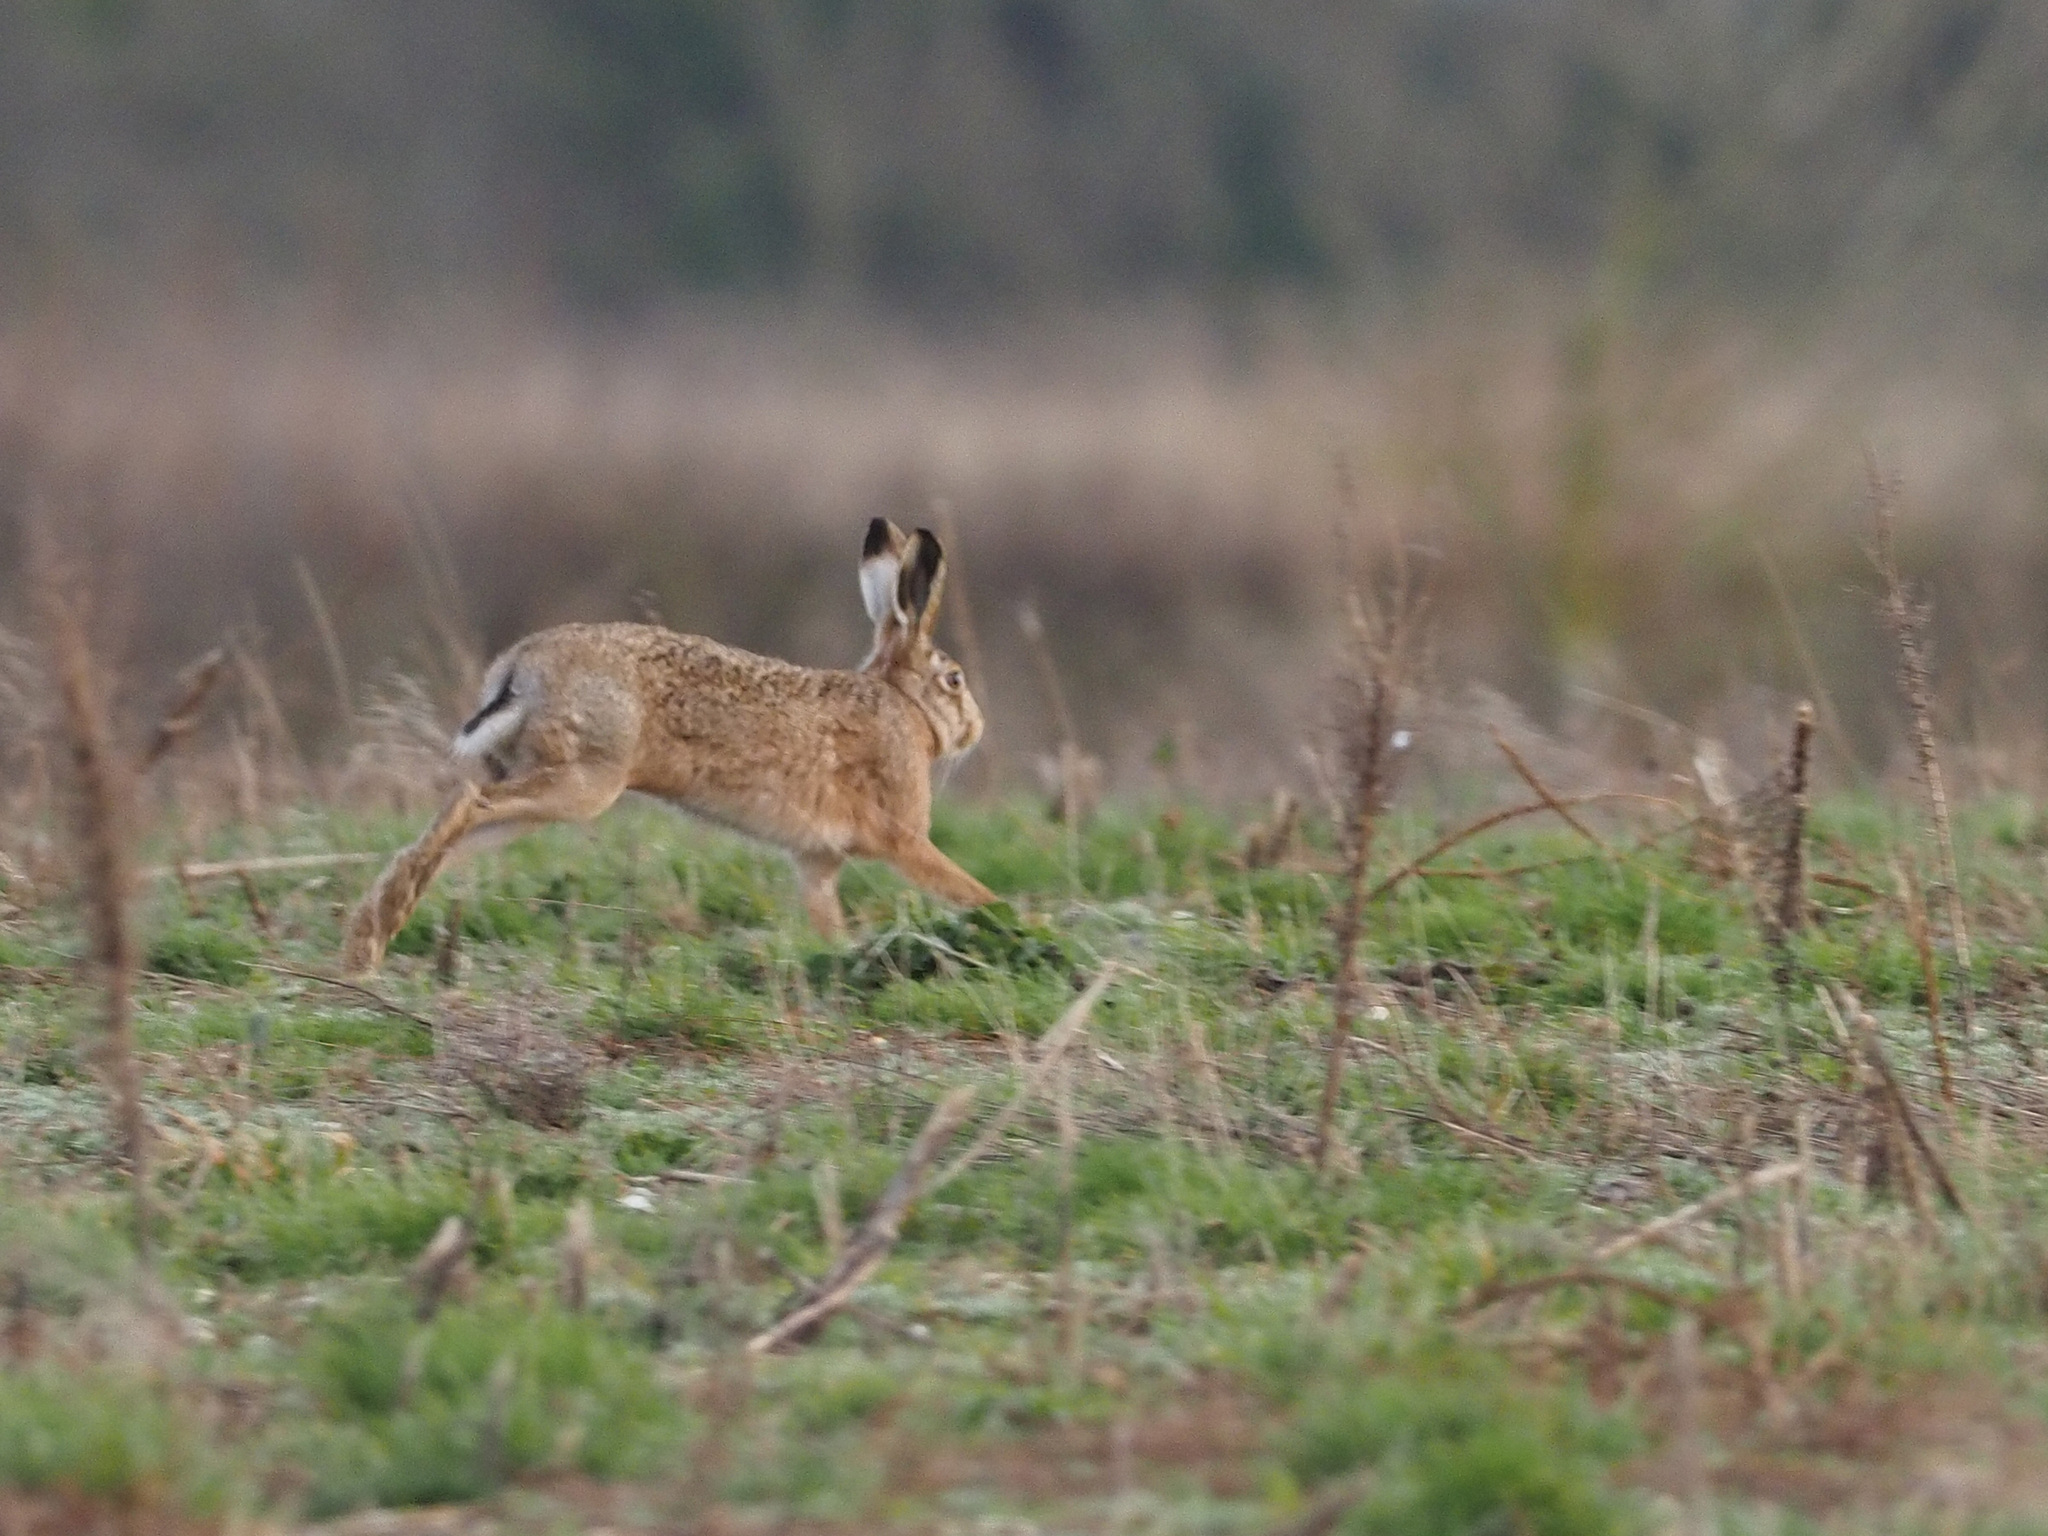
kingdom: Animalia
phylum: Chordata
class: Mammalia
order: Lagomorpha
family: Leporidae
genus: Lepus
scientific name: Lepus europaeus
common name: European hare
